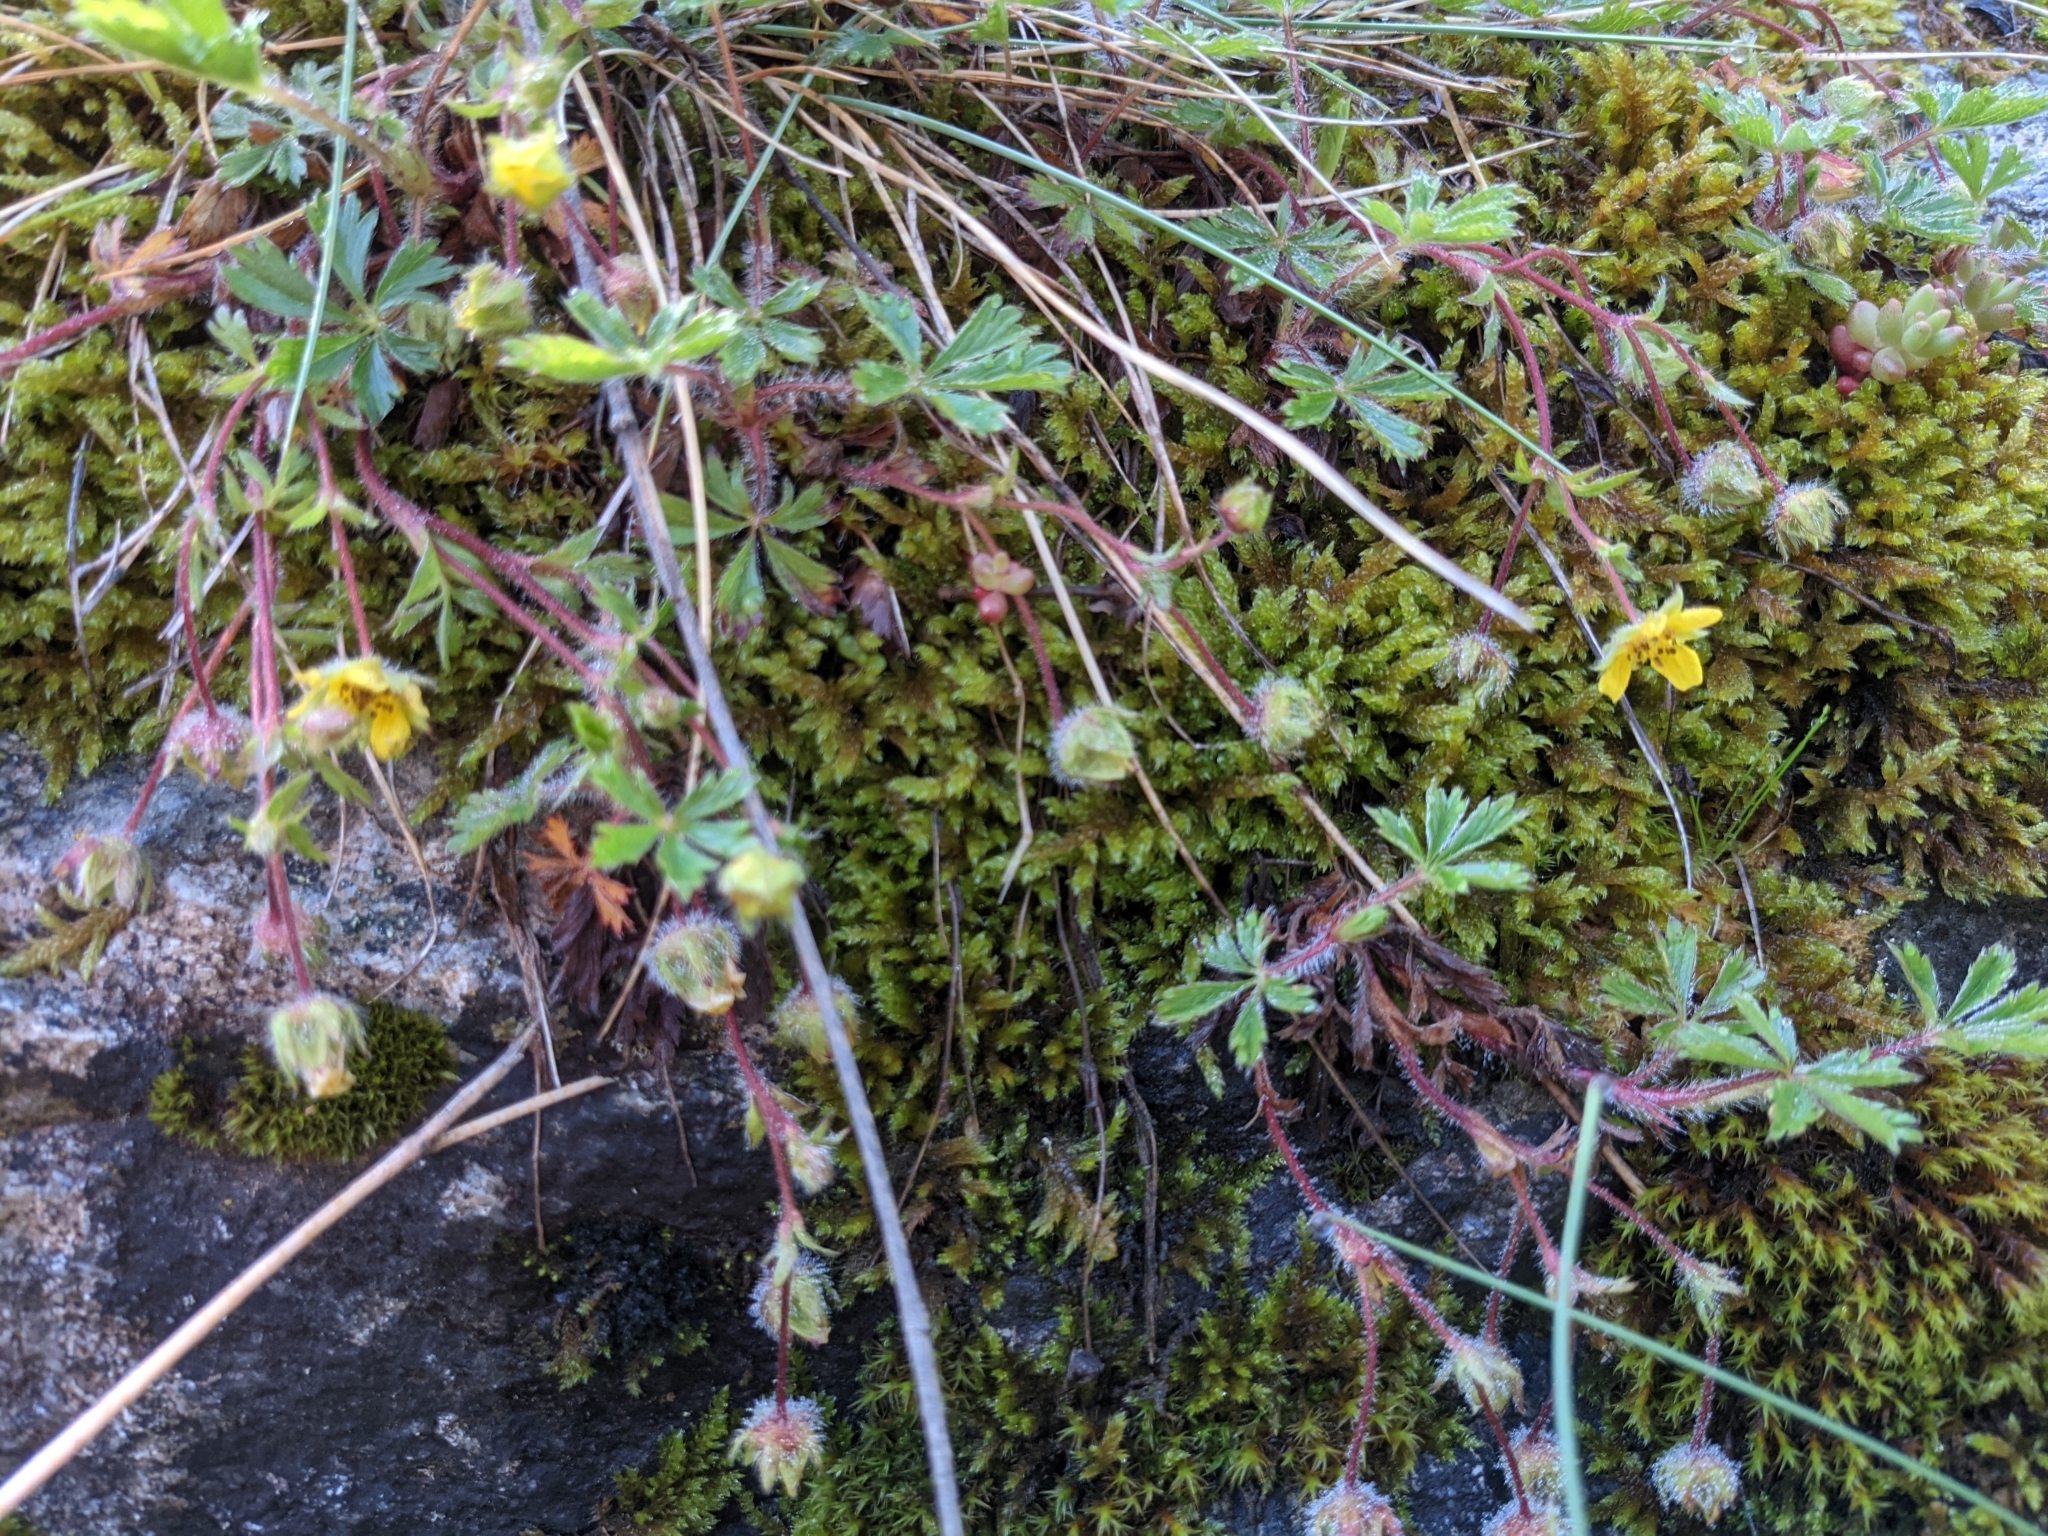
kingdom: Plantae
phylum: Tracheophyta
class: Magnoliopsida
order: Rosales
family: Rosaceae
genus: Potentilla
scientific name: Potentilla verna
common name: Spring cinquefoil
